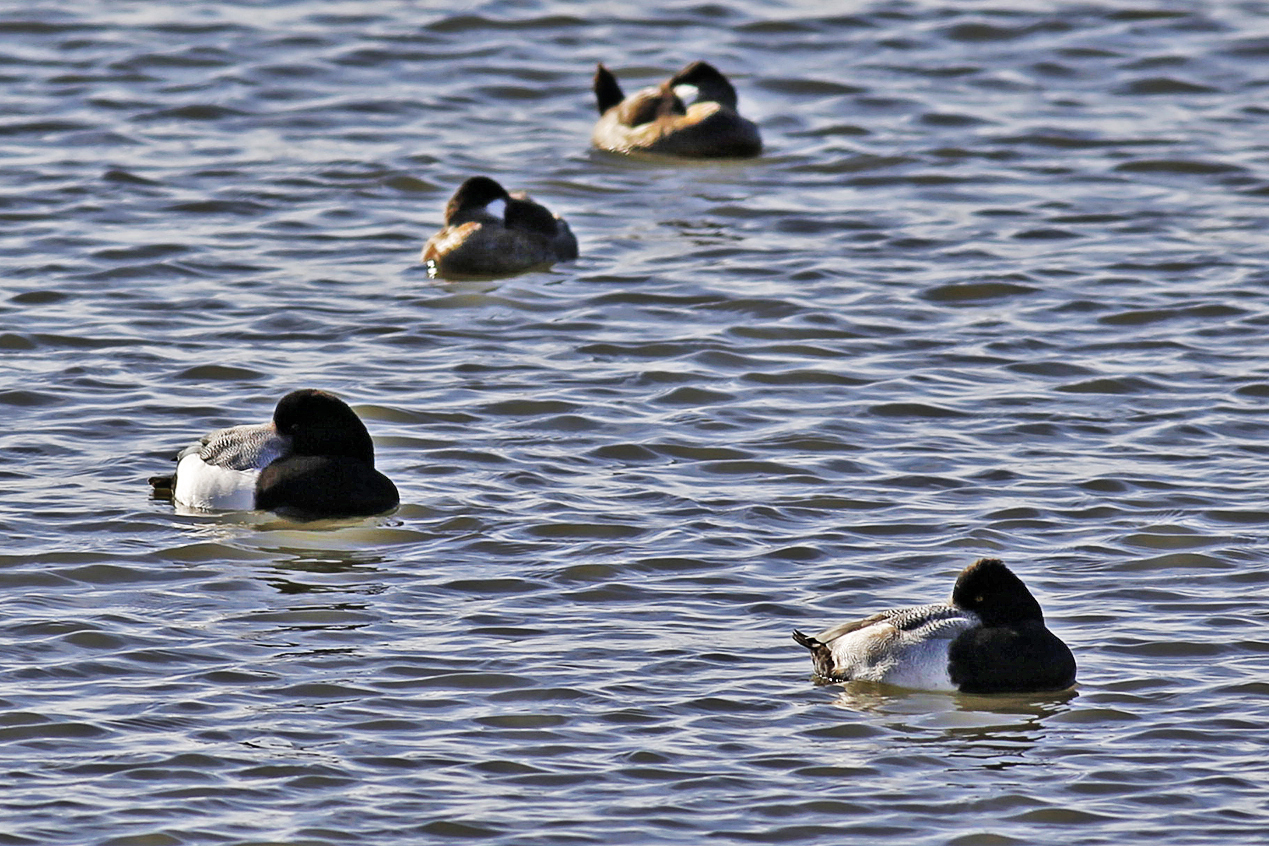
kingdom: Animalia
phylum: Chordata
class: Aves
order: Anseriformes
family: Anatidae
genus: Aythya
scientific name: Aythya marila
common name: Greater scaup
